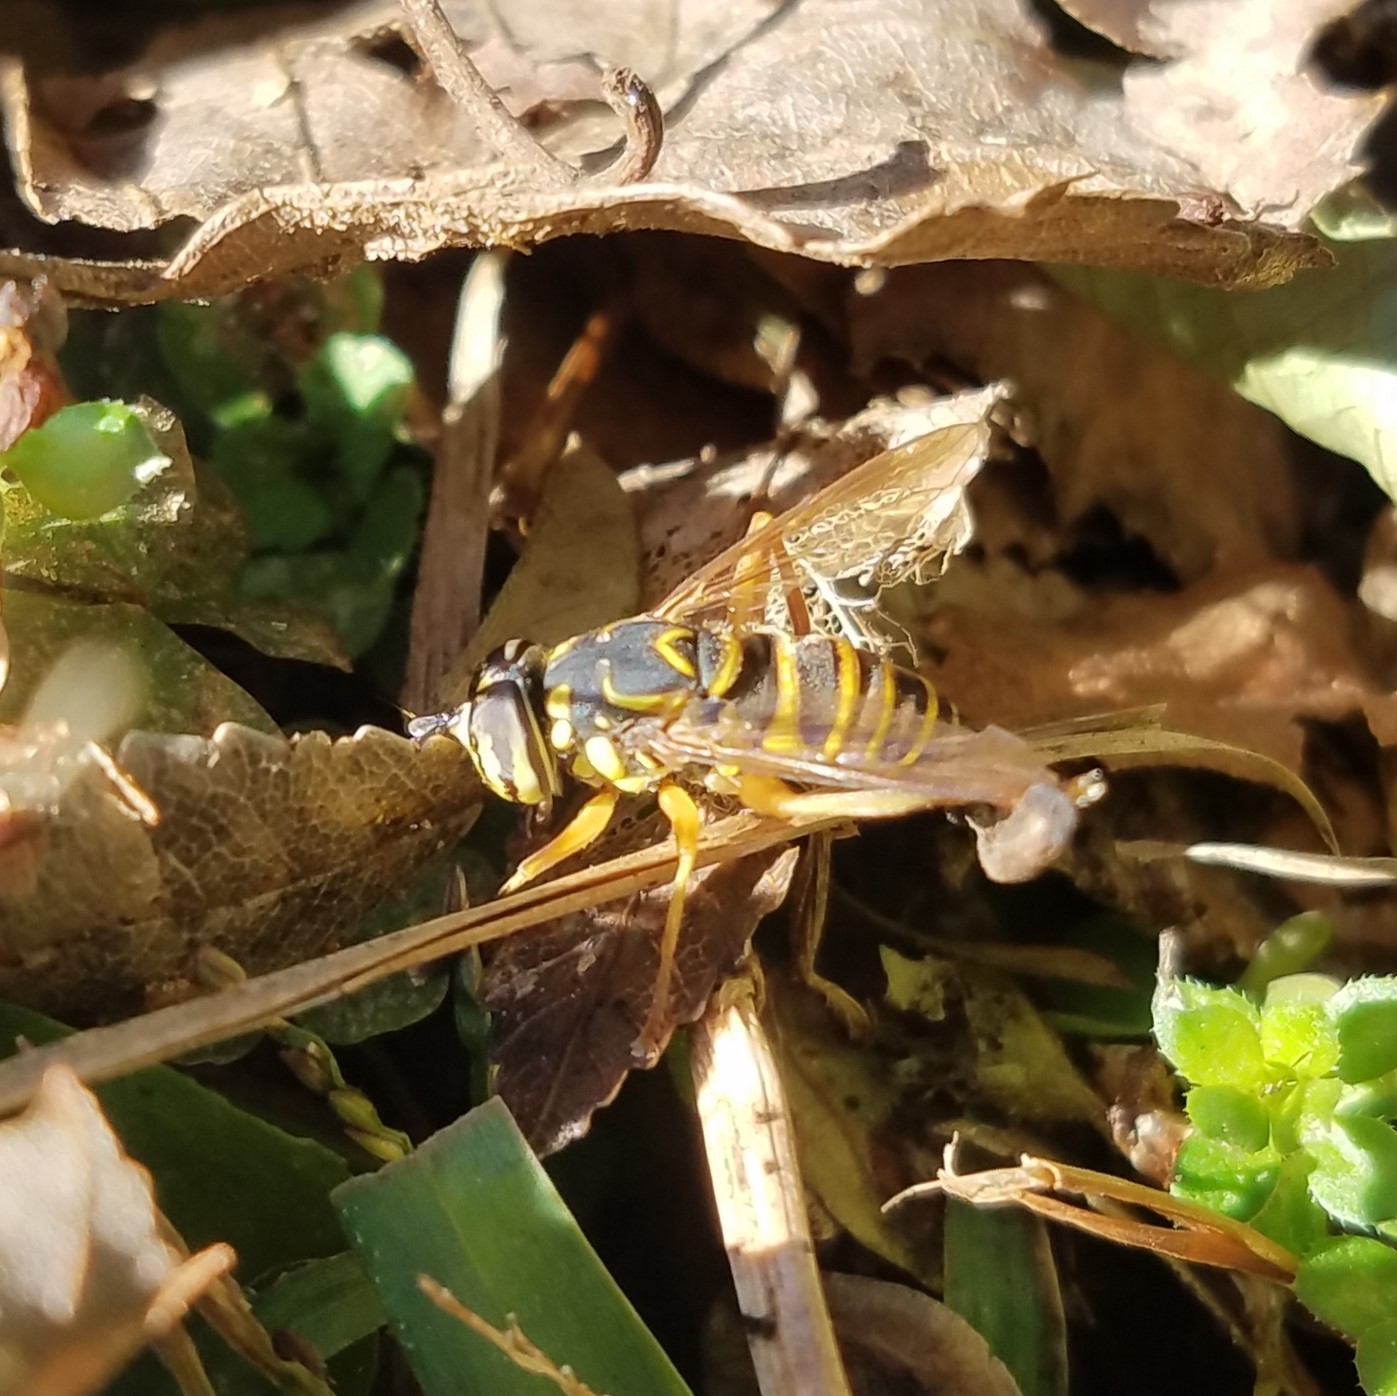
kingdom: Animalia
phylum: Arthropoda
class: Insecta
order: Diptera
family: Syrphidae
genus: Spilomyia
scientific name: Spilomyia longicornis
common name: Eastern hornet fly
